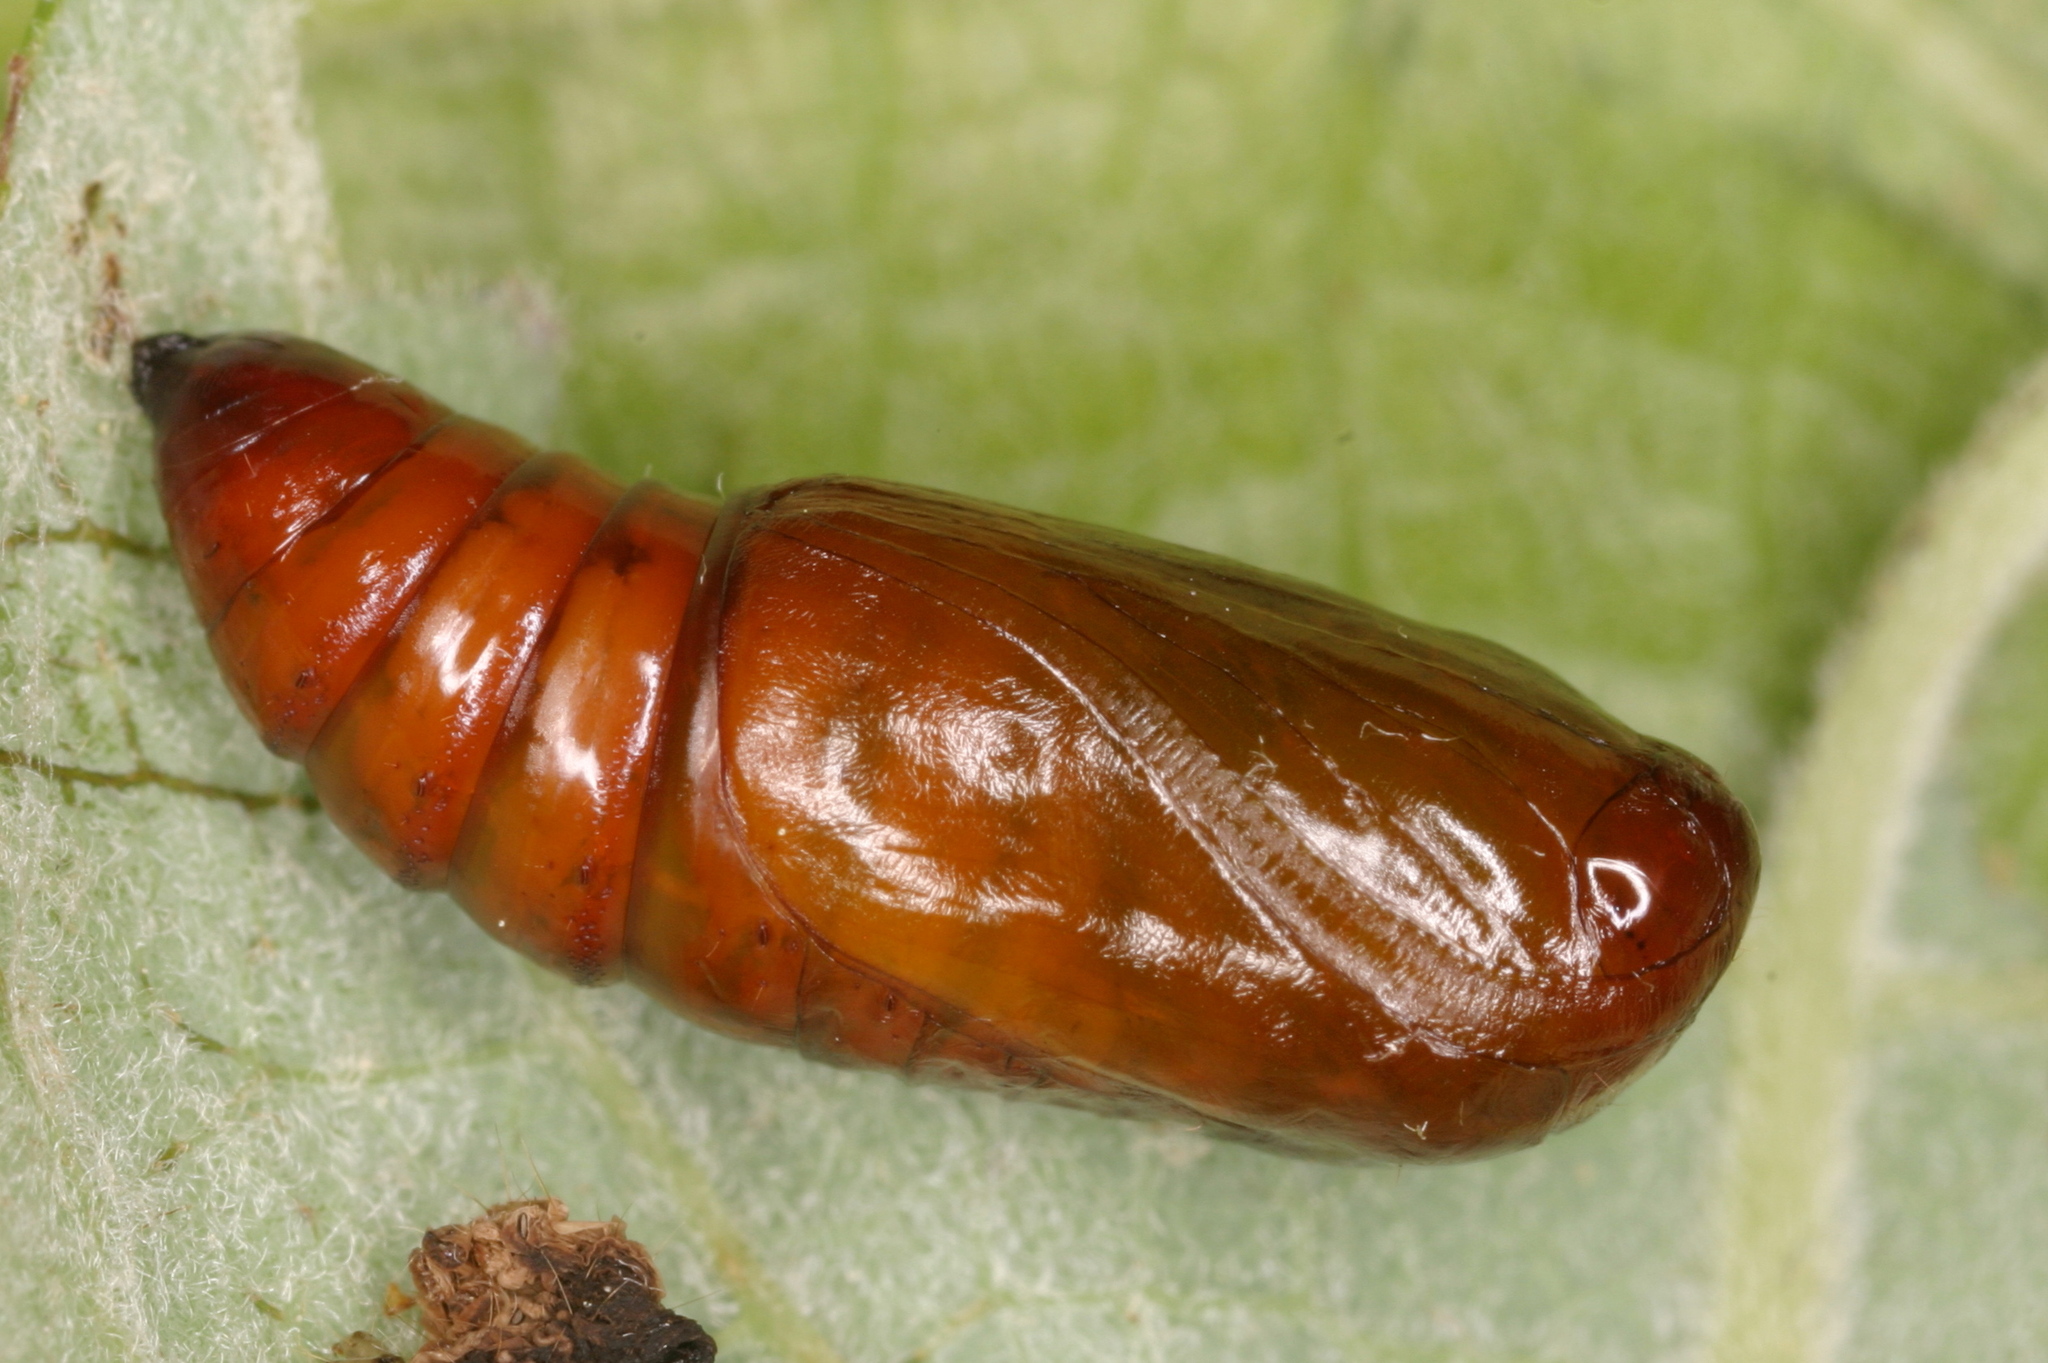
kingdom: Animalia
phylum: Arthropoda
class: Insecta
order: Lepidoptera
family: Noctuidae
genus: Brachylomia
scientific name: Brachylomia viminalis
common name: Minor shoulder-knot
